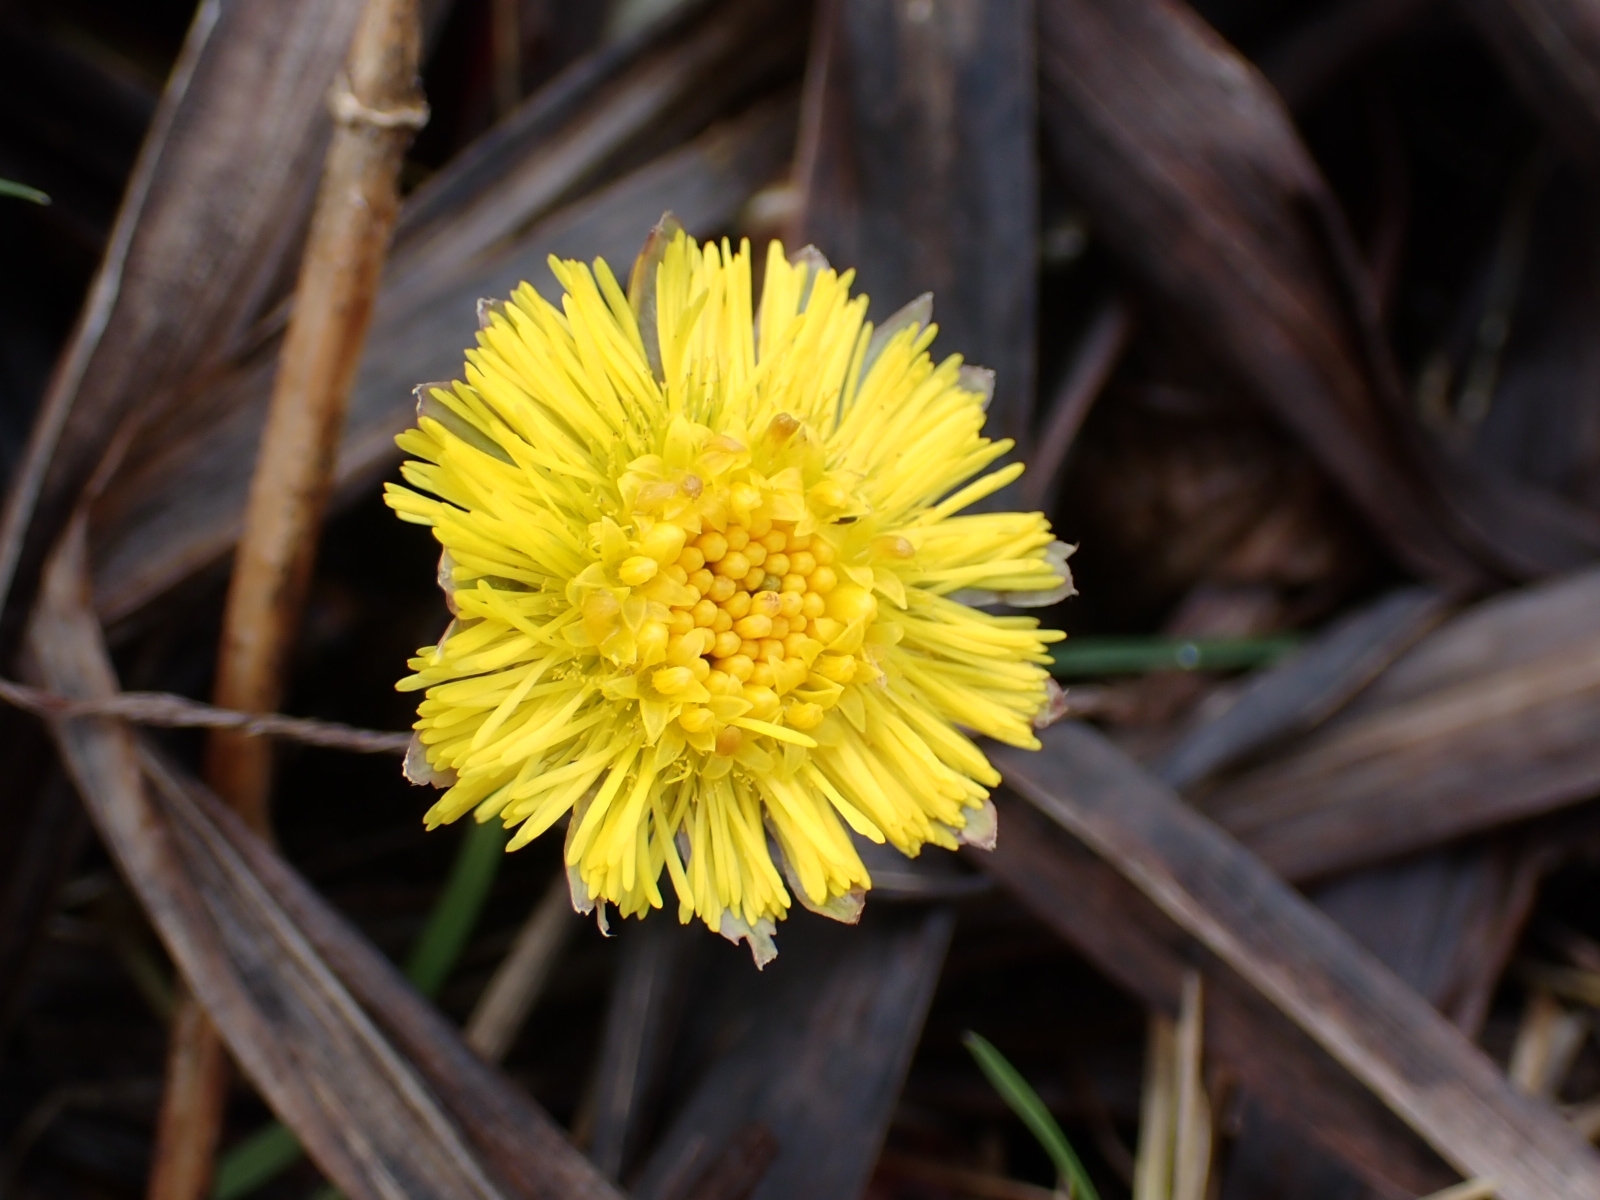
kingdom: Plantae
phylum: Tracheophyta
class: Magnoliopsida
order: Asterales
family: Asteraceae
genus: Tussilago
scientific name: Tussilago farfara
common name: Coltsfoot
